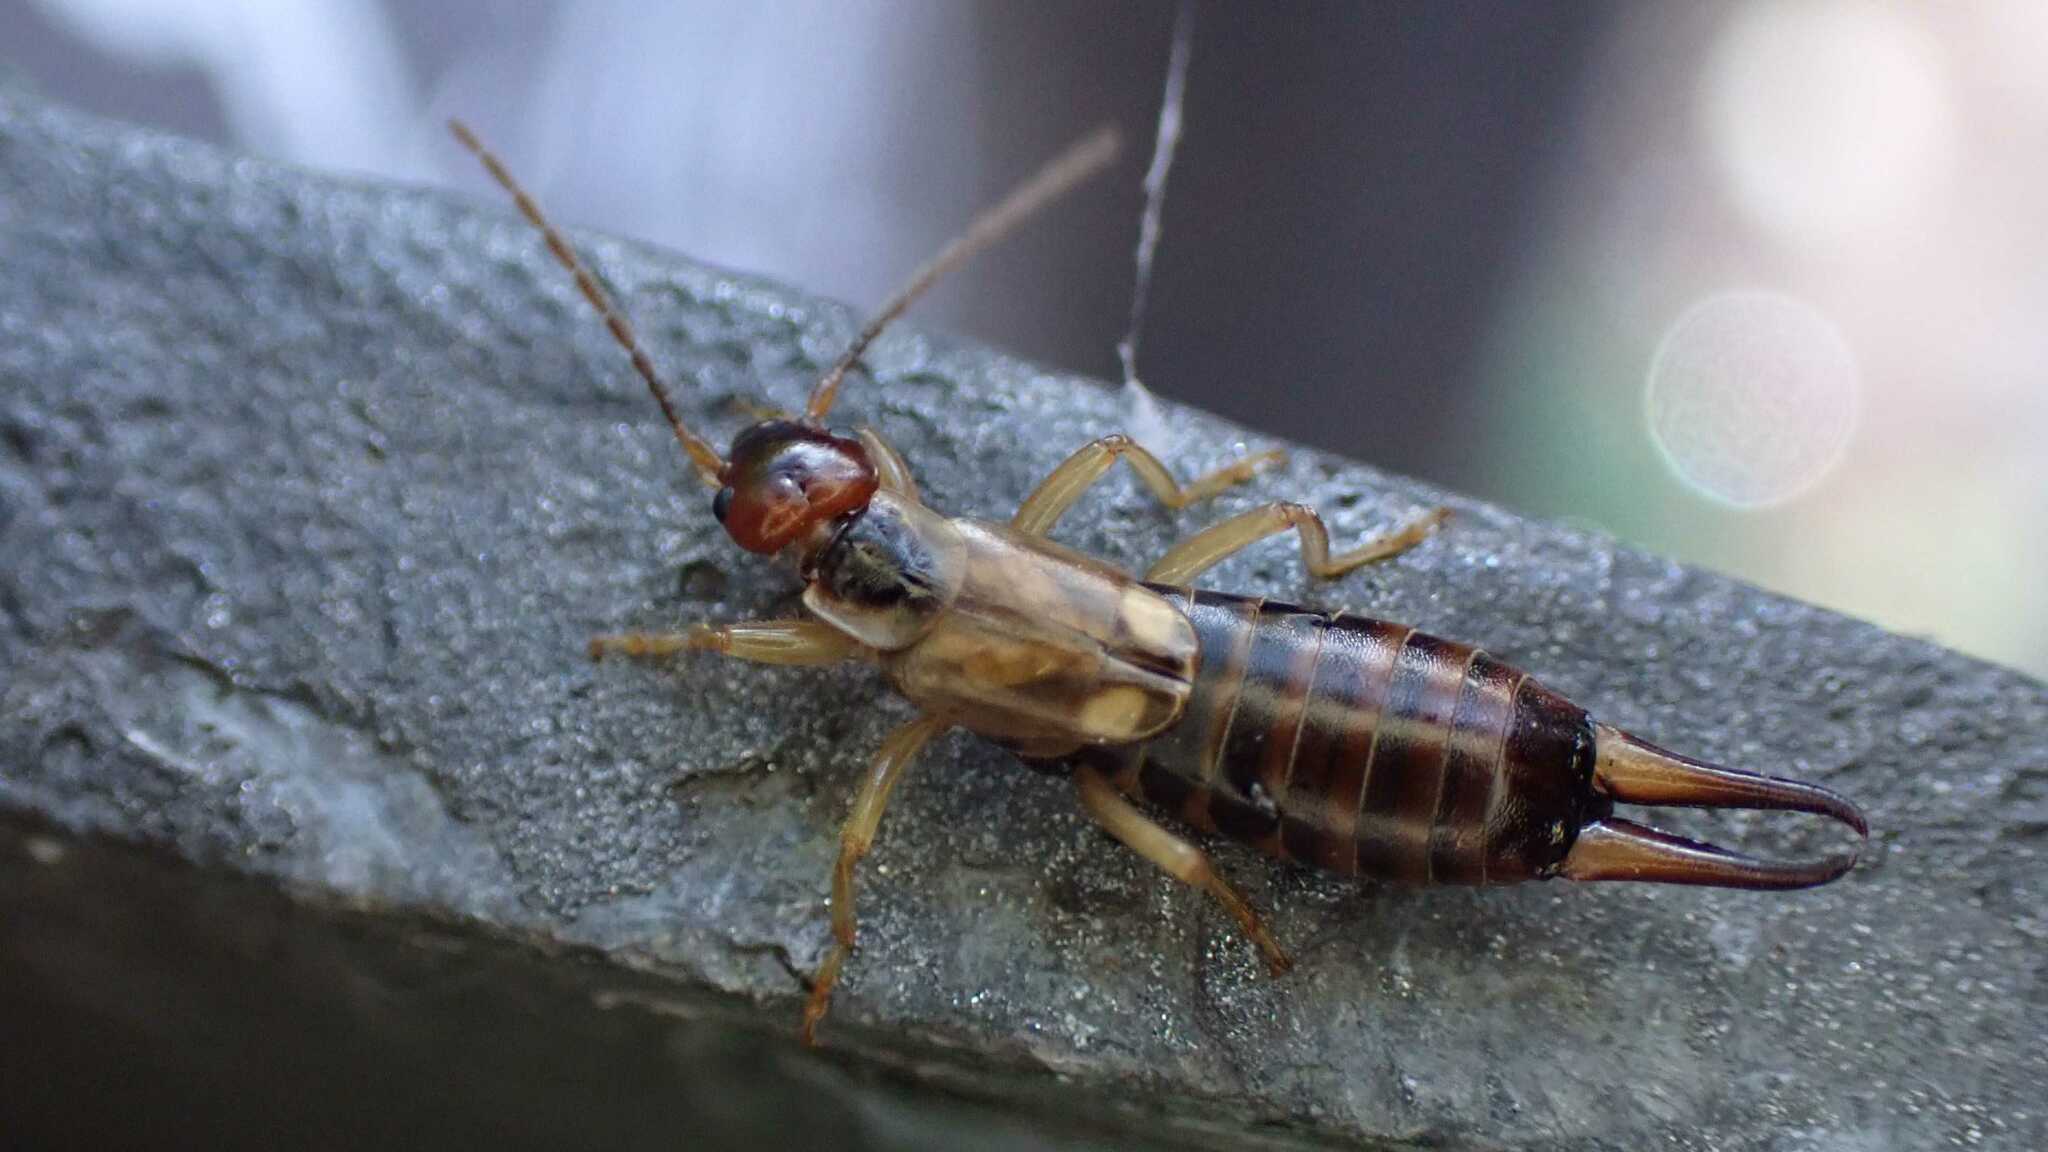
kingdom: Animalia
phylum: Arthropoda
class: Insecta
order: Dermaptera
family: Forficulidae
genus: Forficula
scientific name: Forficula
